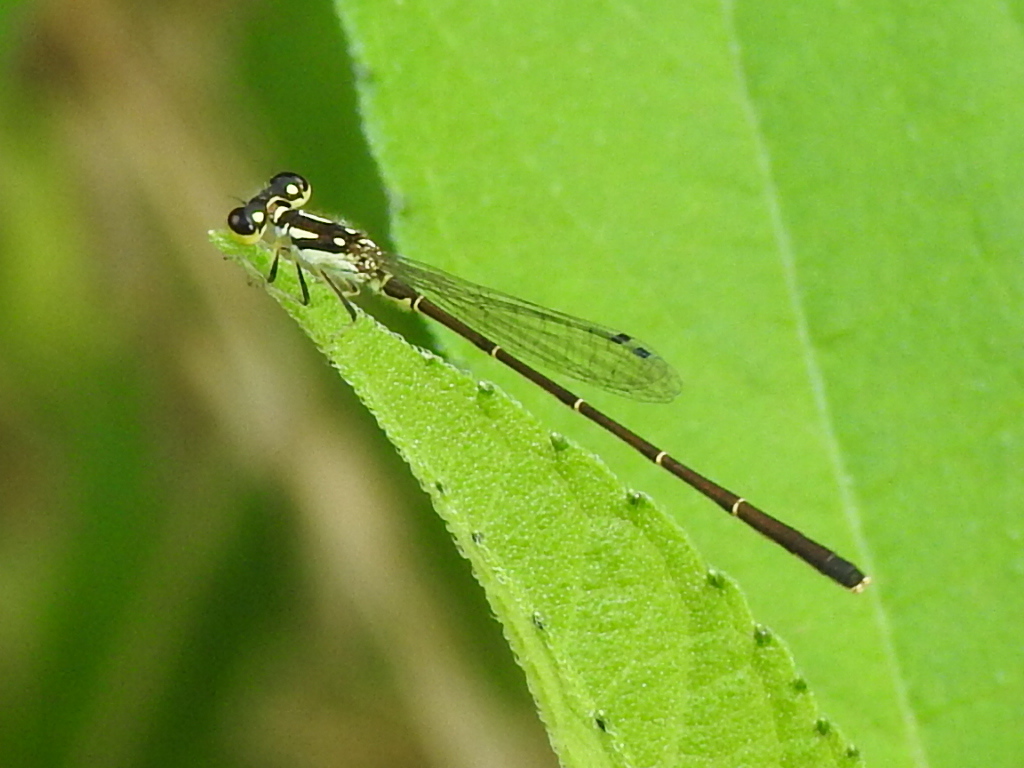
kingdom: Animalia
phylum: Arthropoda
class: Insecta
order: Odonata
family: Coenagrionidae
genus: Ischnura
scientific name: Ischnura posita
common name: Fragile forktail
